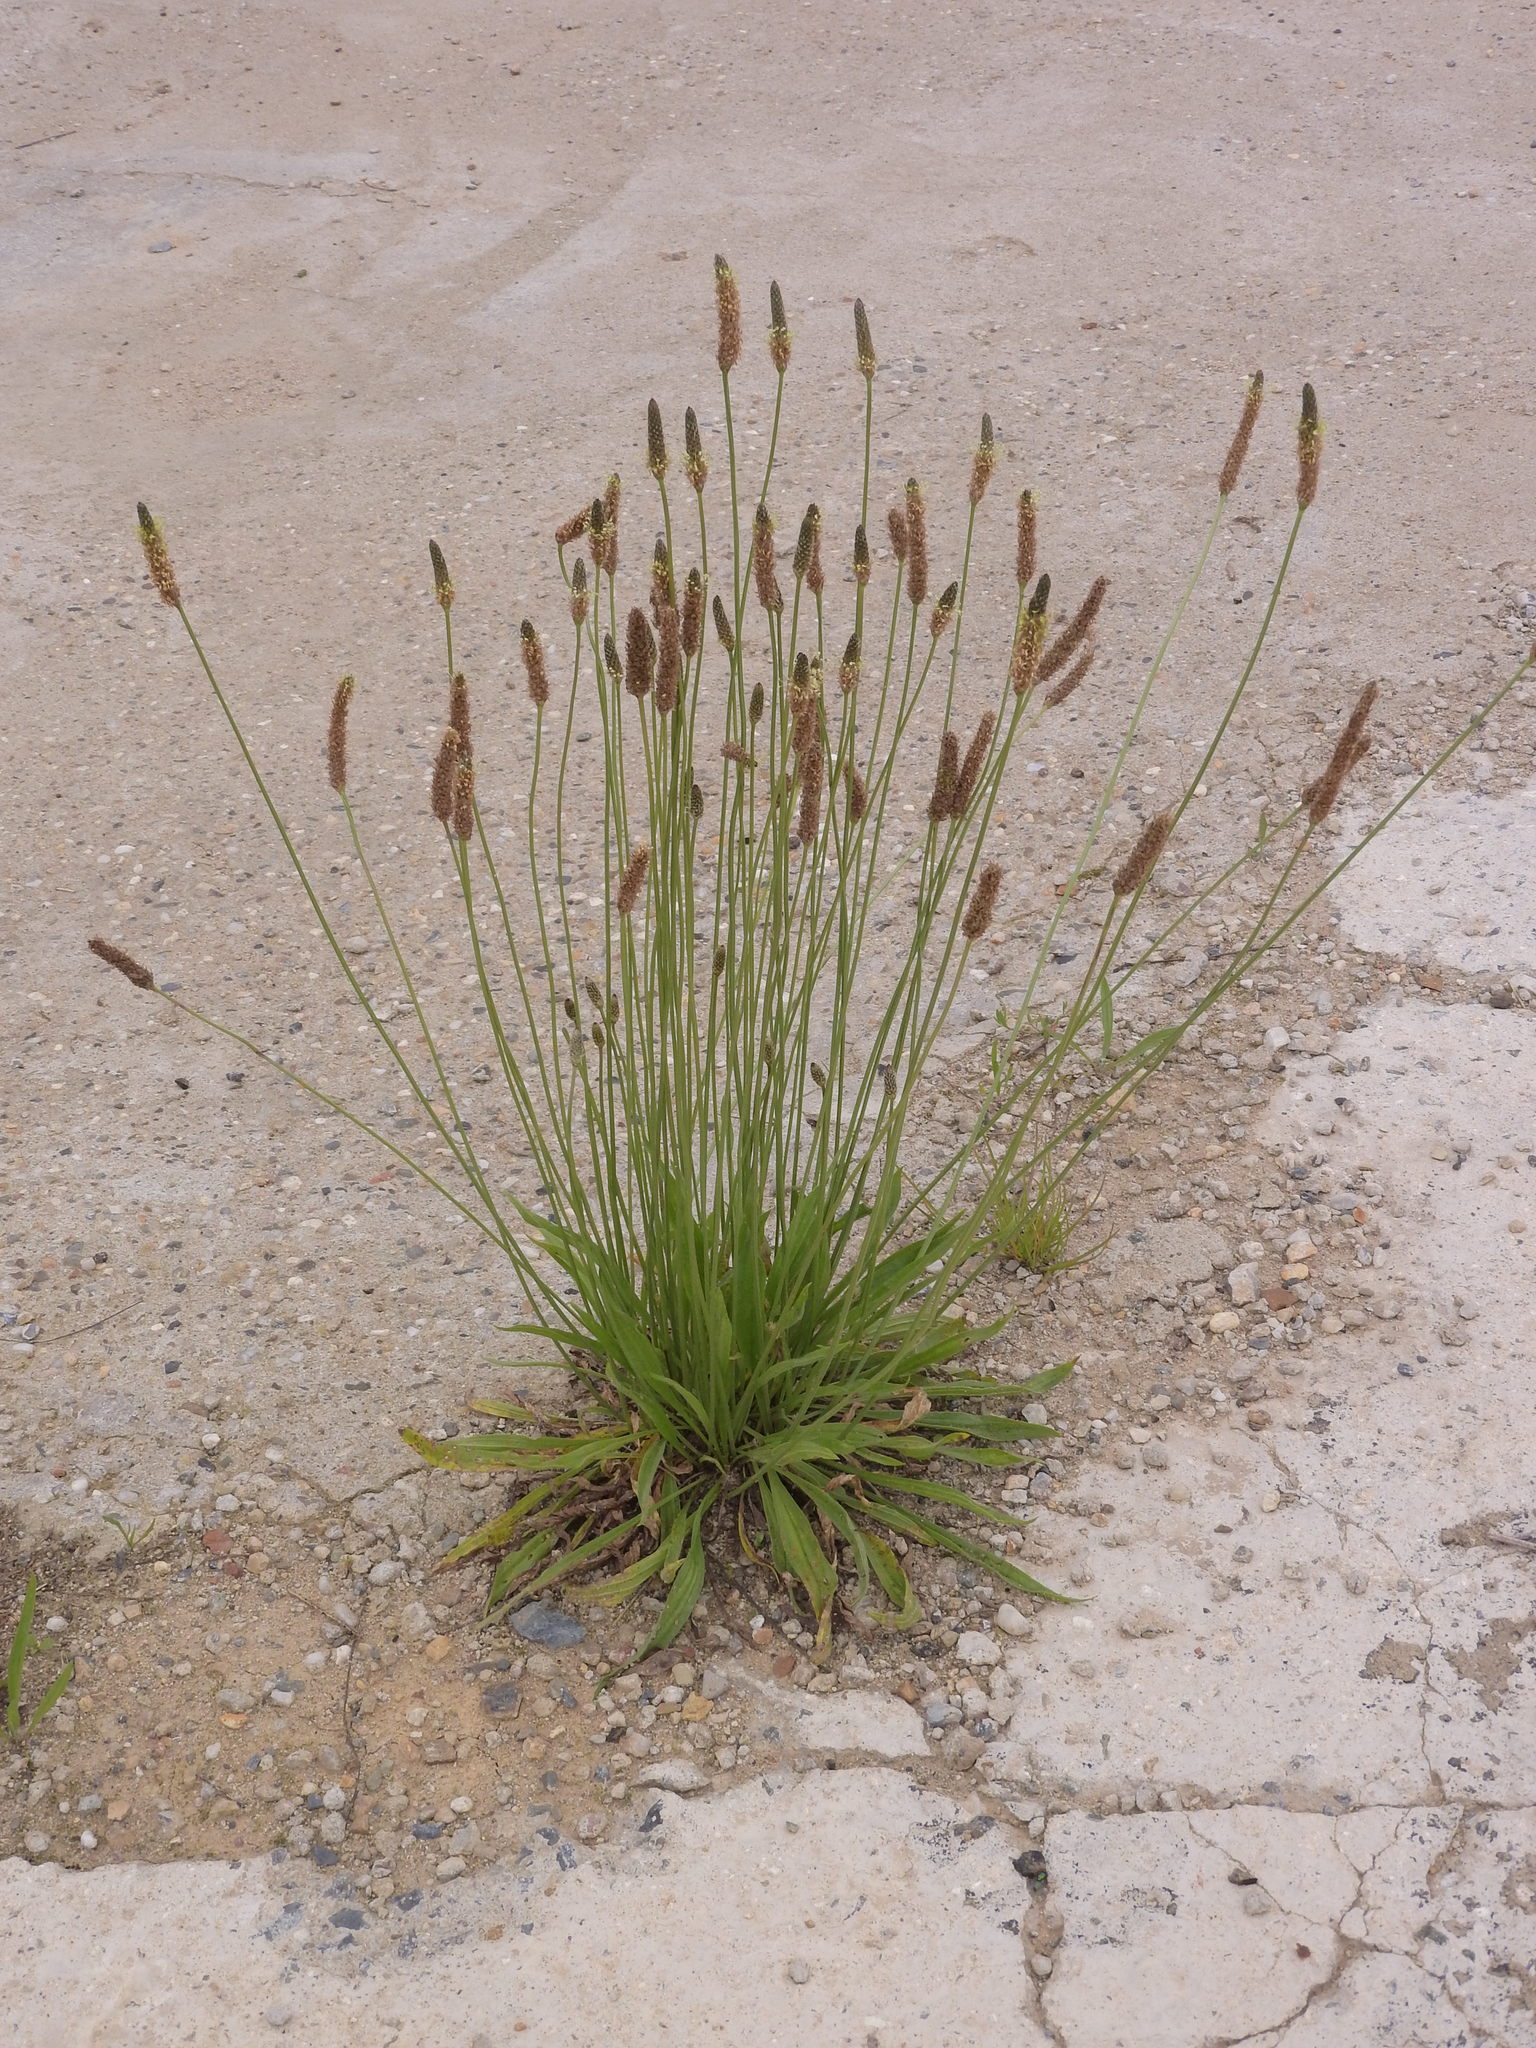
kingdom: Plantae
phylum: Tracheophyta
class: Magnoliopsida
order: Lamiales
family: Plantaginaceae
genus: Plantago
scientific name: Plantago lanceolata
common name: Ribwort plantain
